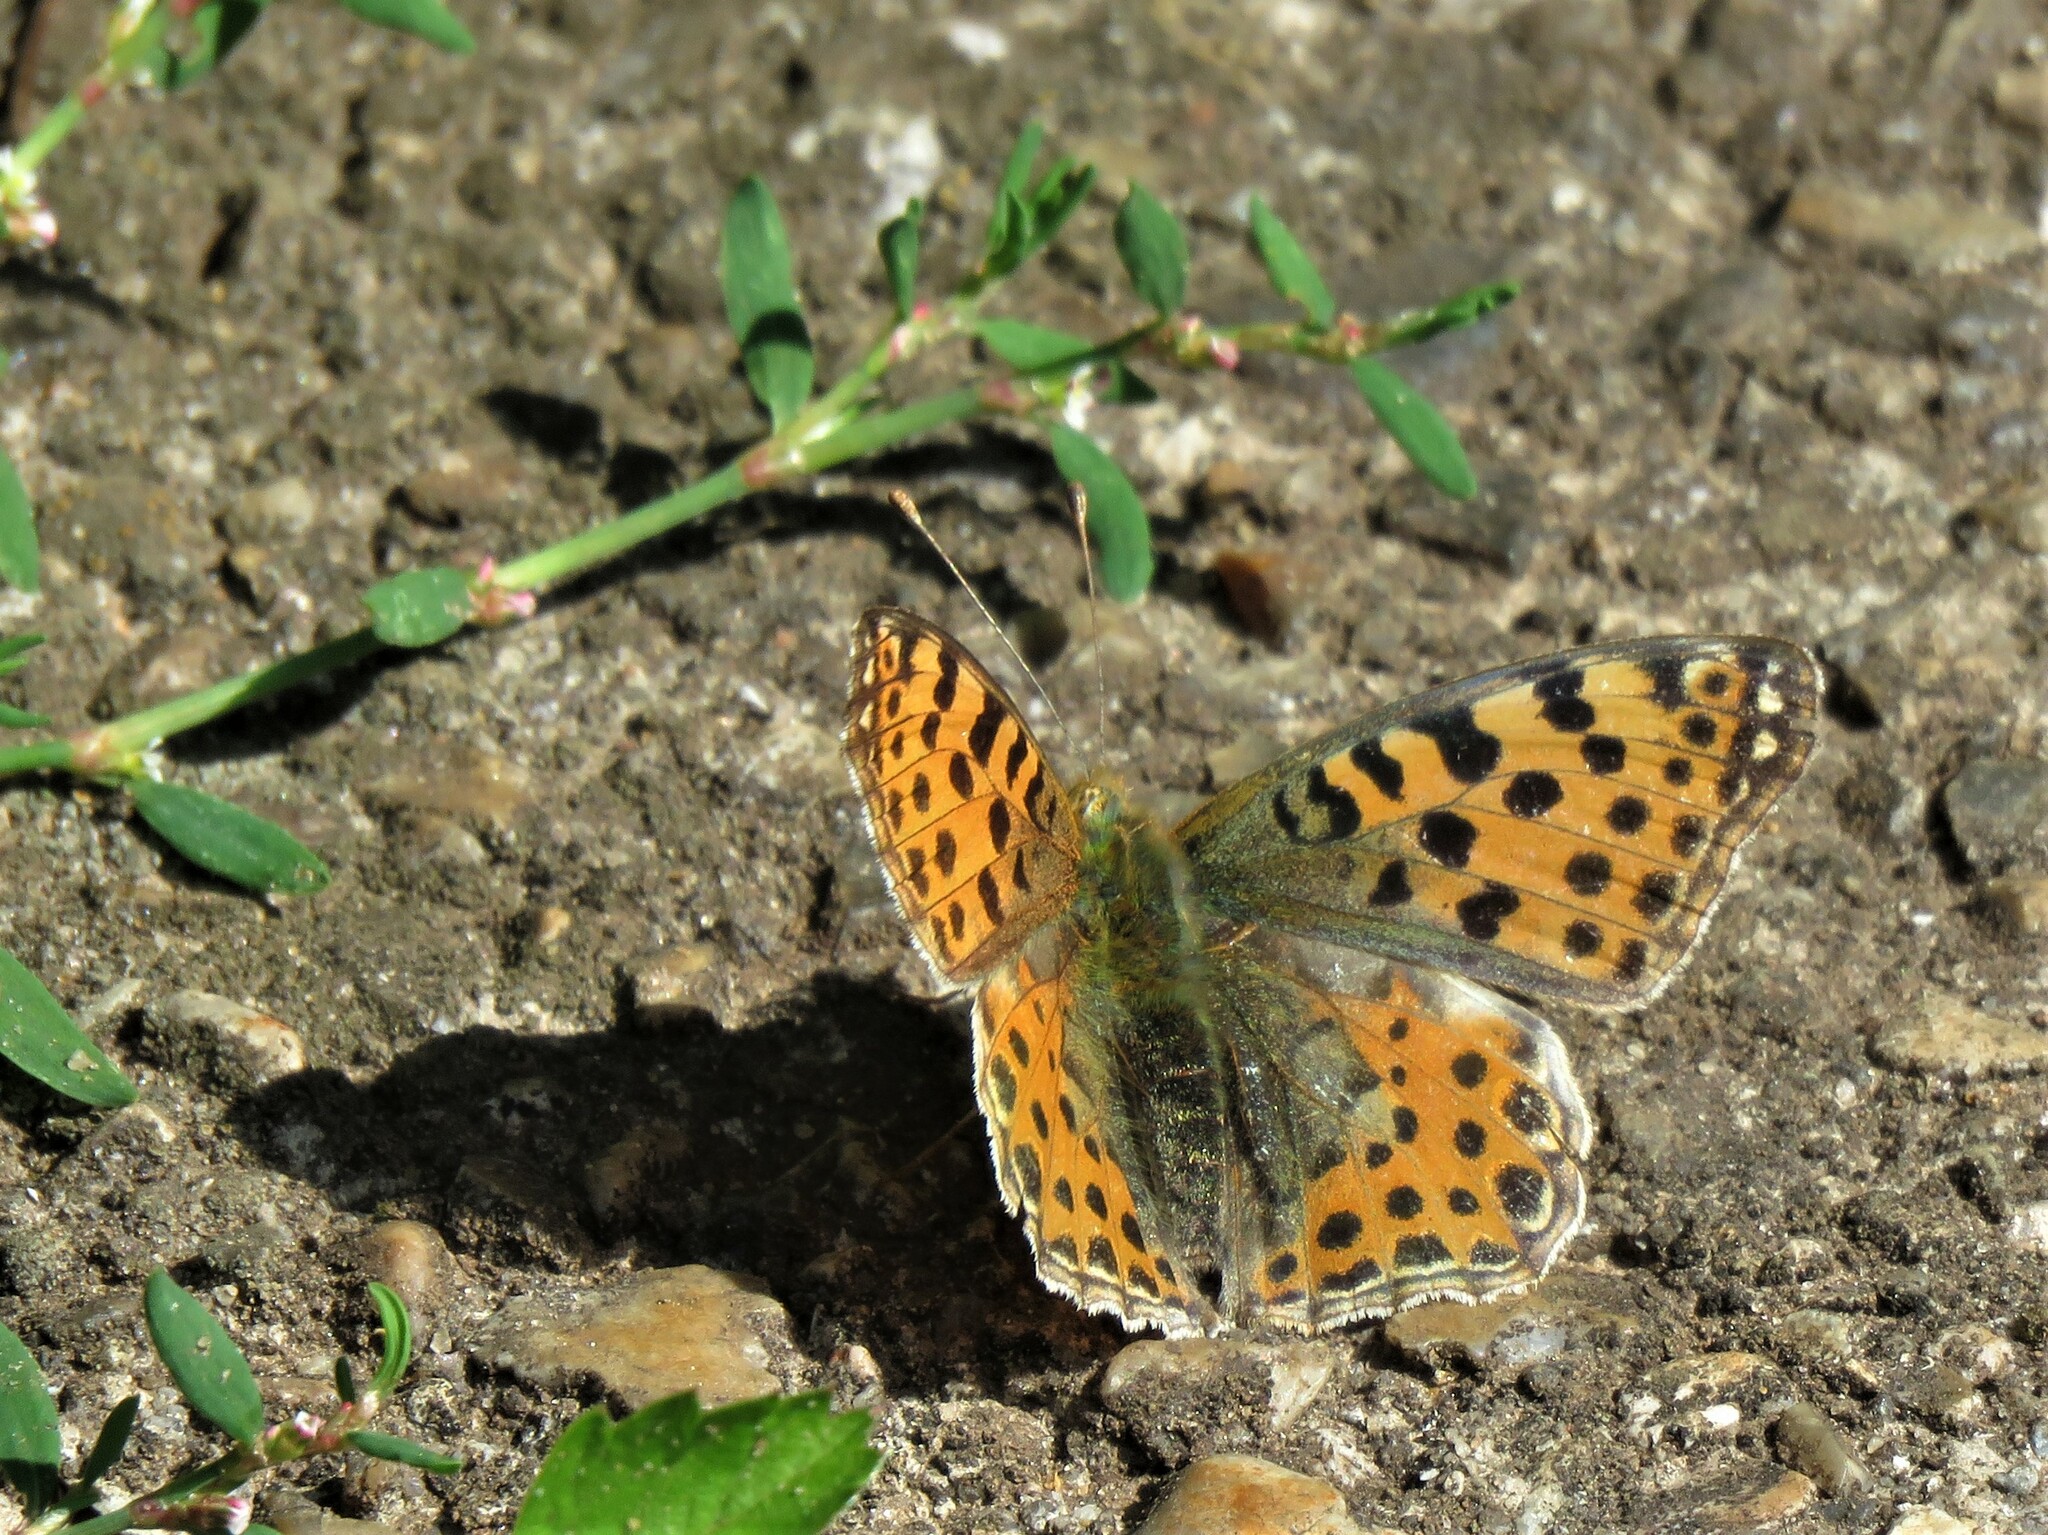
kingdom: Animalia
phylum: Arthropoda
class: Insecta
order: Lepidoptera
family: Nymphalidae
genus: Issoria
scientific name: Issoria lathonia
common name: Queen of spain fritillary
